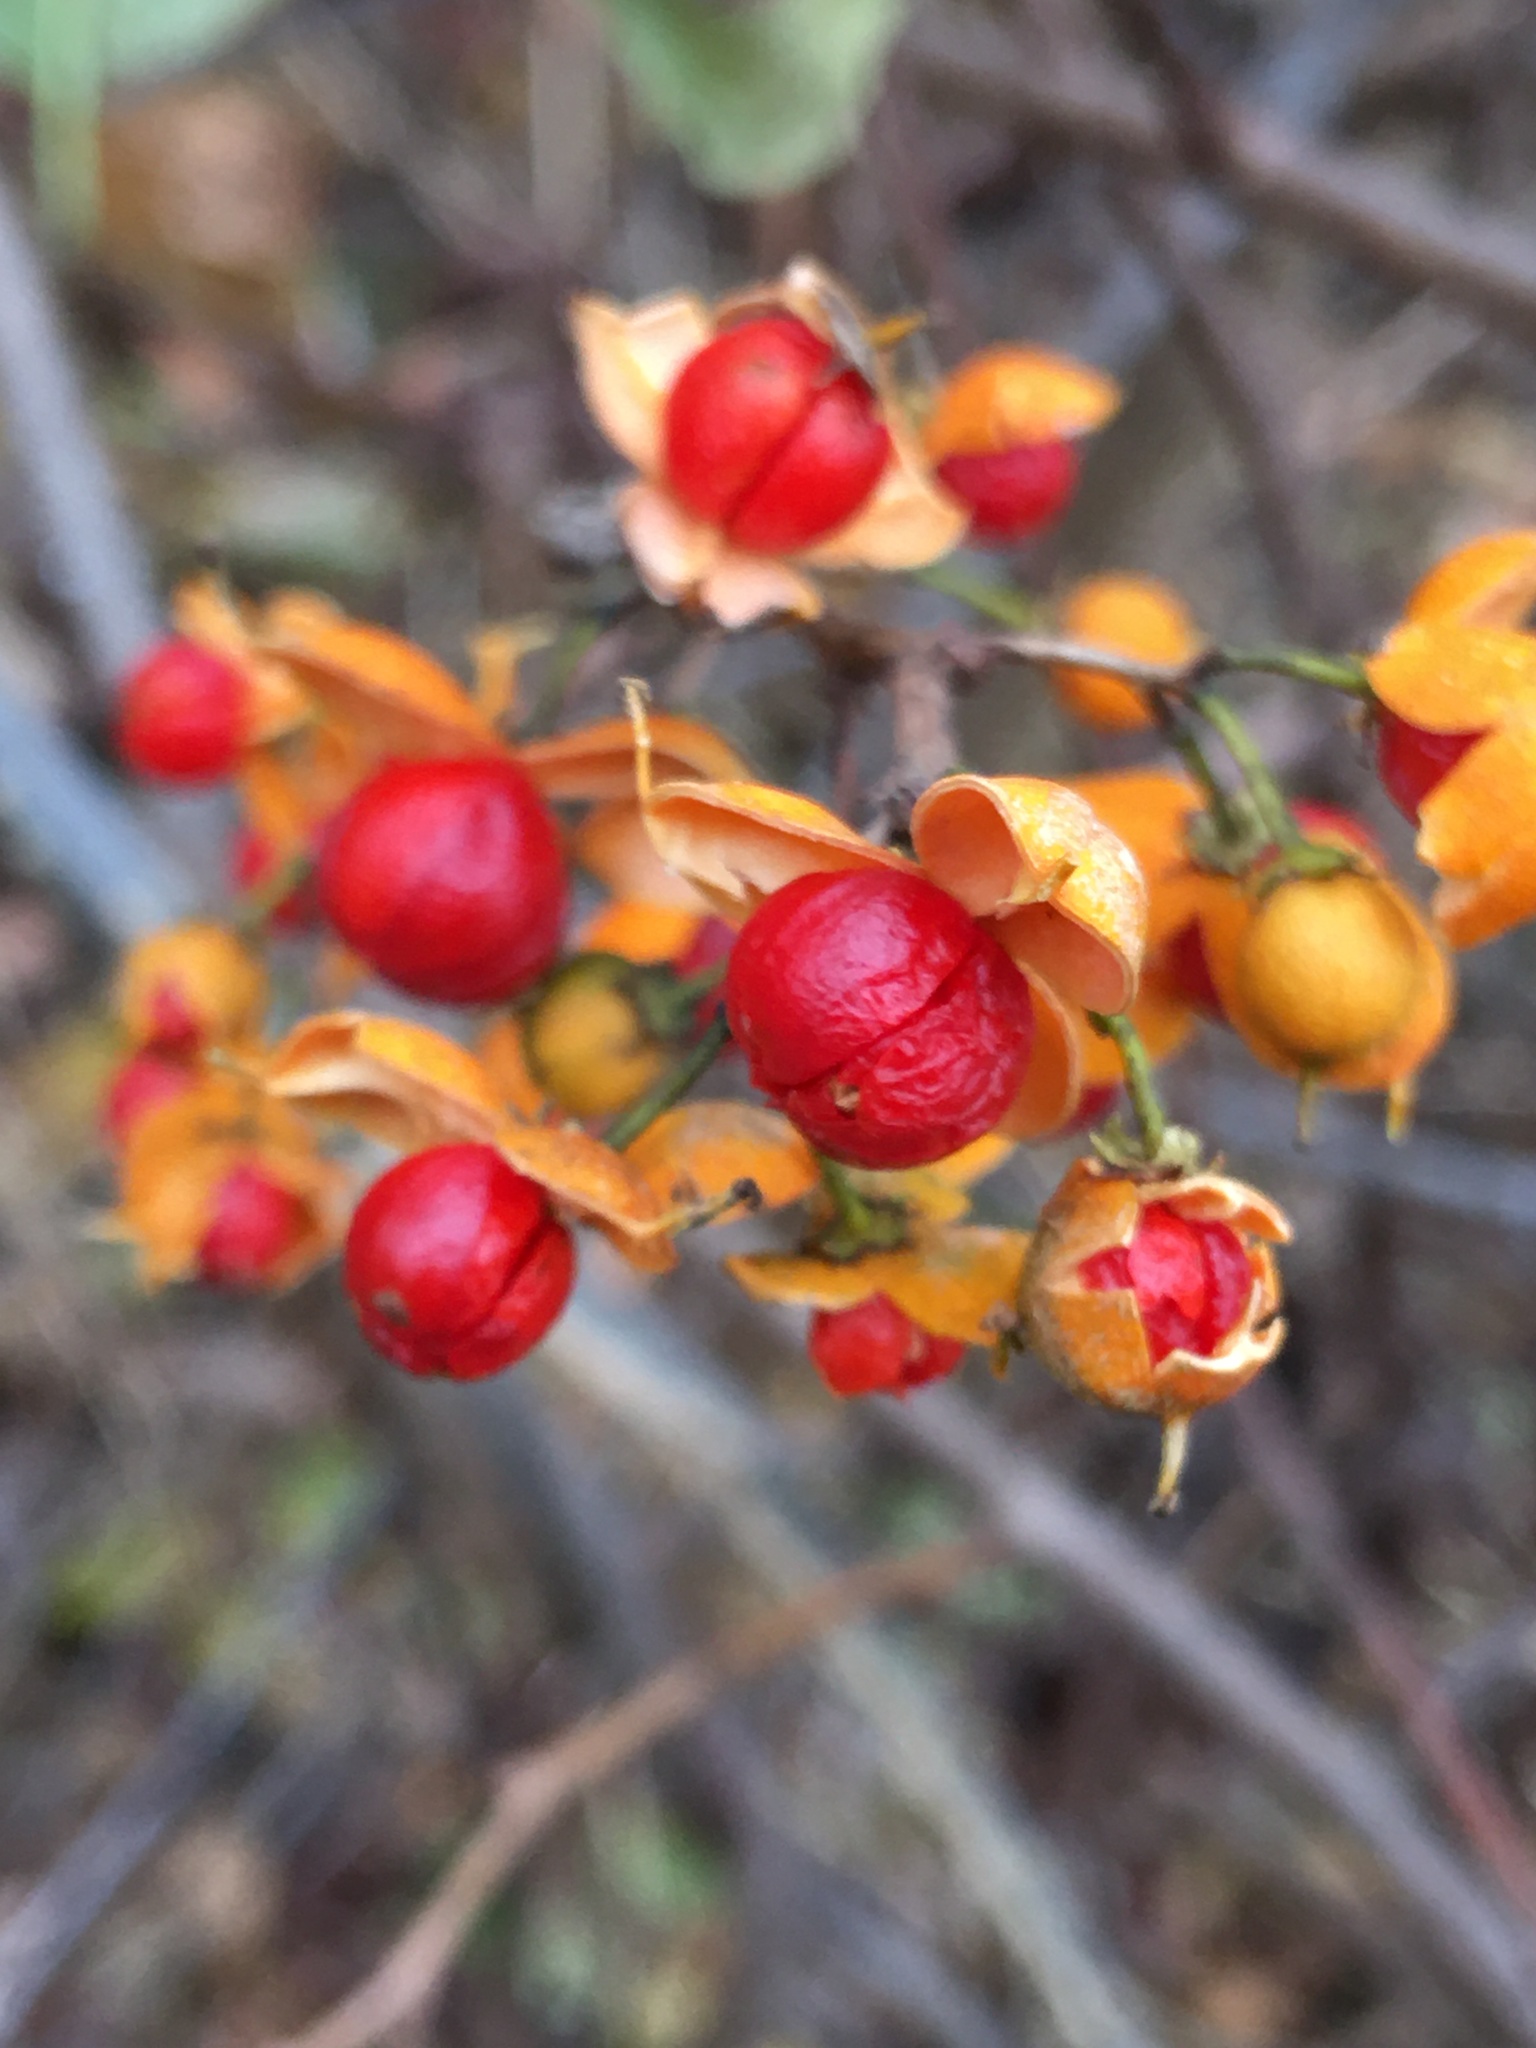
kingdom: Plantae
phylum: Tracheophyta
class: Magnoliopsida
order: Celastrales
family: Celastraceae
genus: Celastrus
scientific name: Celastrus orbiculatus
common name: Oriental bittersweet
